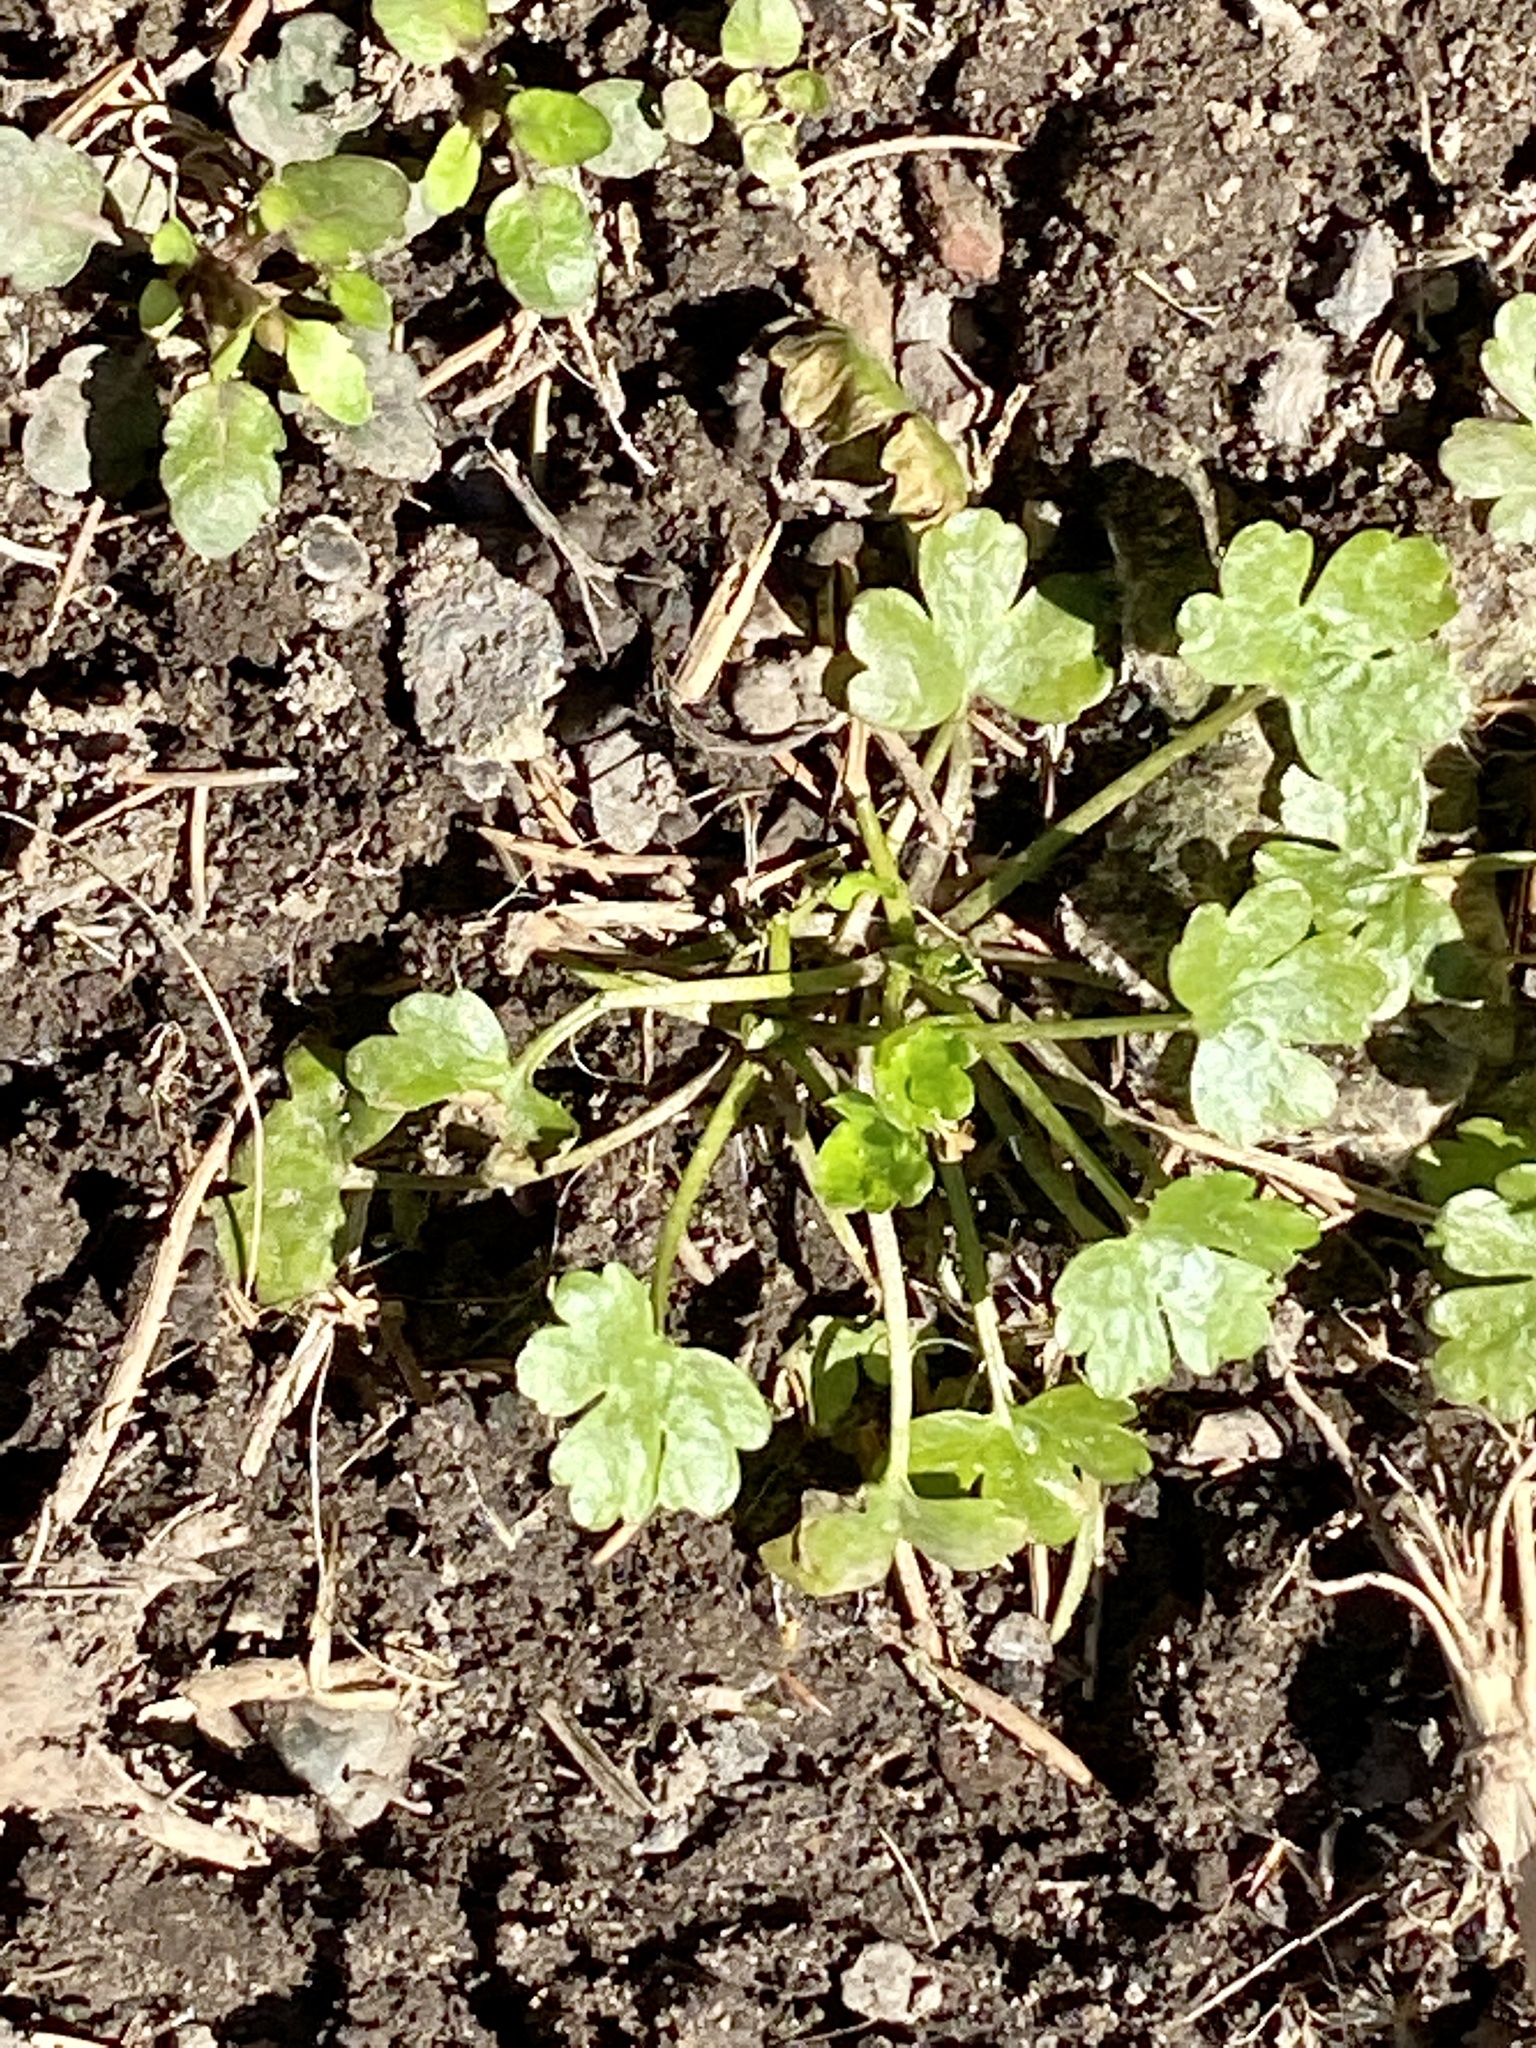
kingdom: Plantae
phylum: Tracheophyta
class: Magnoliopsida
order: Ranunculales
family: Ranunculaceae
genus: Ranunculus
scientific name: Ranunculus sceleratus
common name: Celery-leaved buttercup
